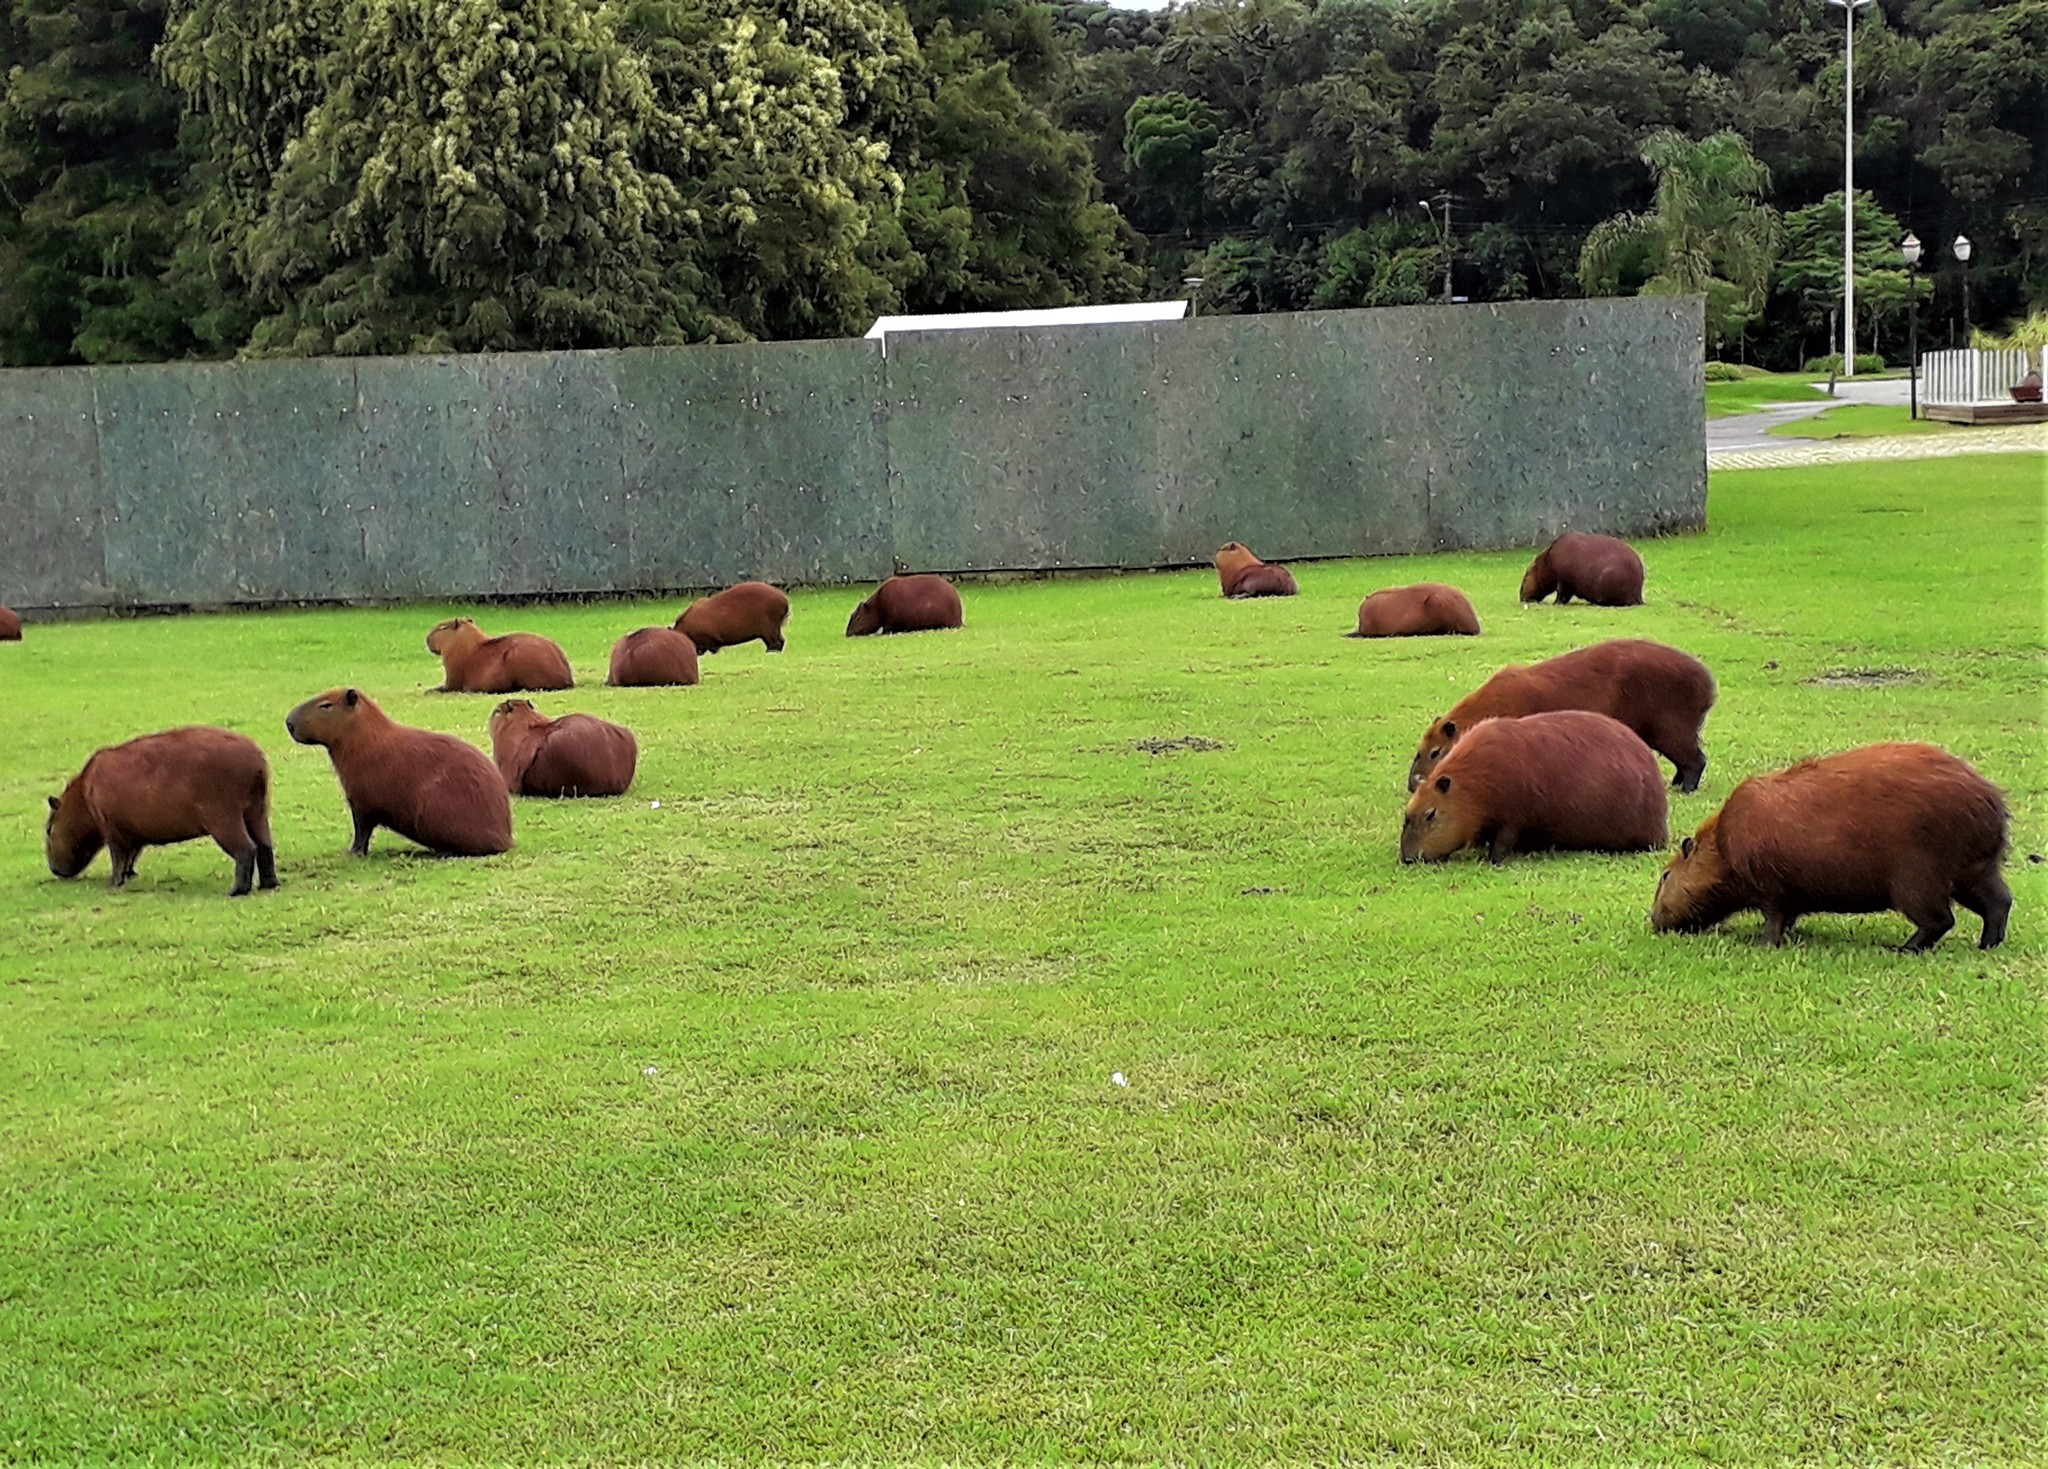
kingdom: Animalia
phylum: Chordata
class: Mammalia
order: Rodentia
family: Caviidae
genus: Hydrochoerus
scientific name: Hydrochoerus hydrochaeris
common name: Capybara
